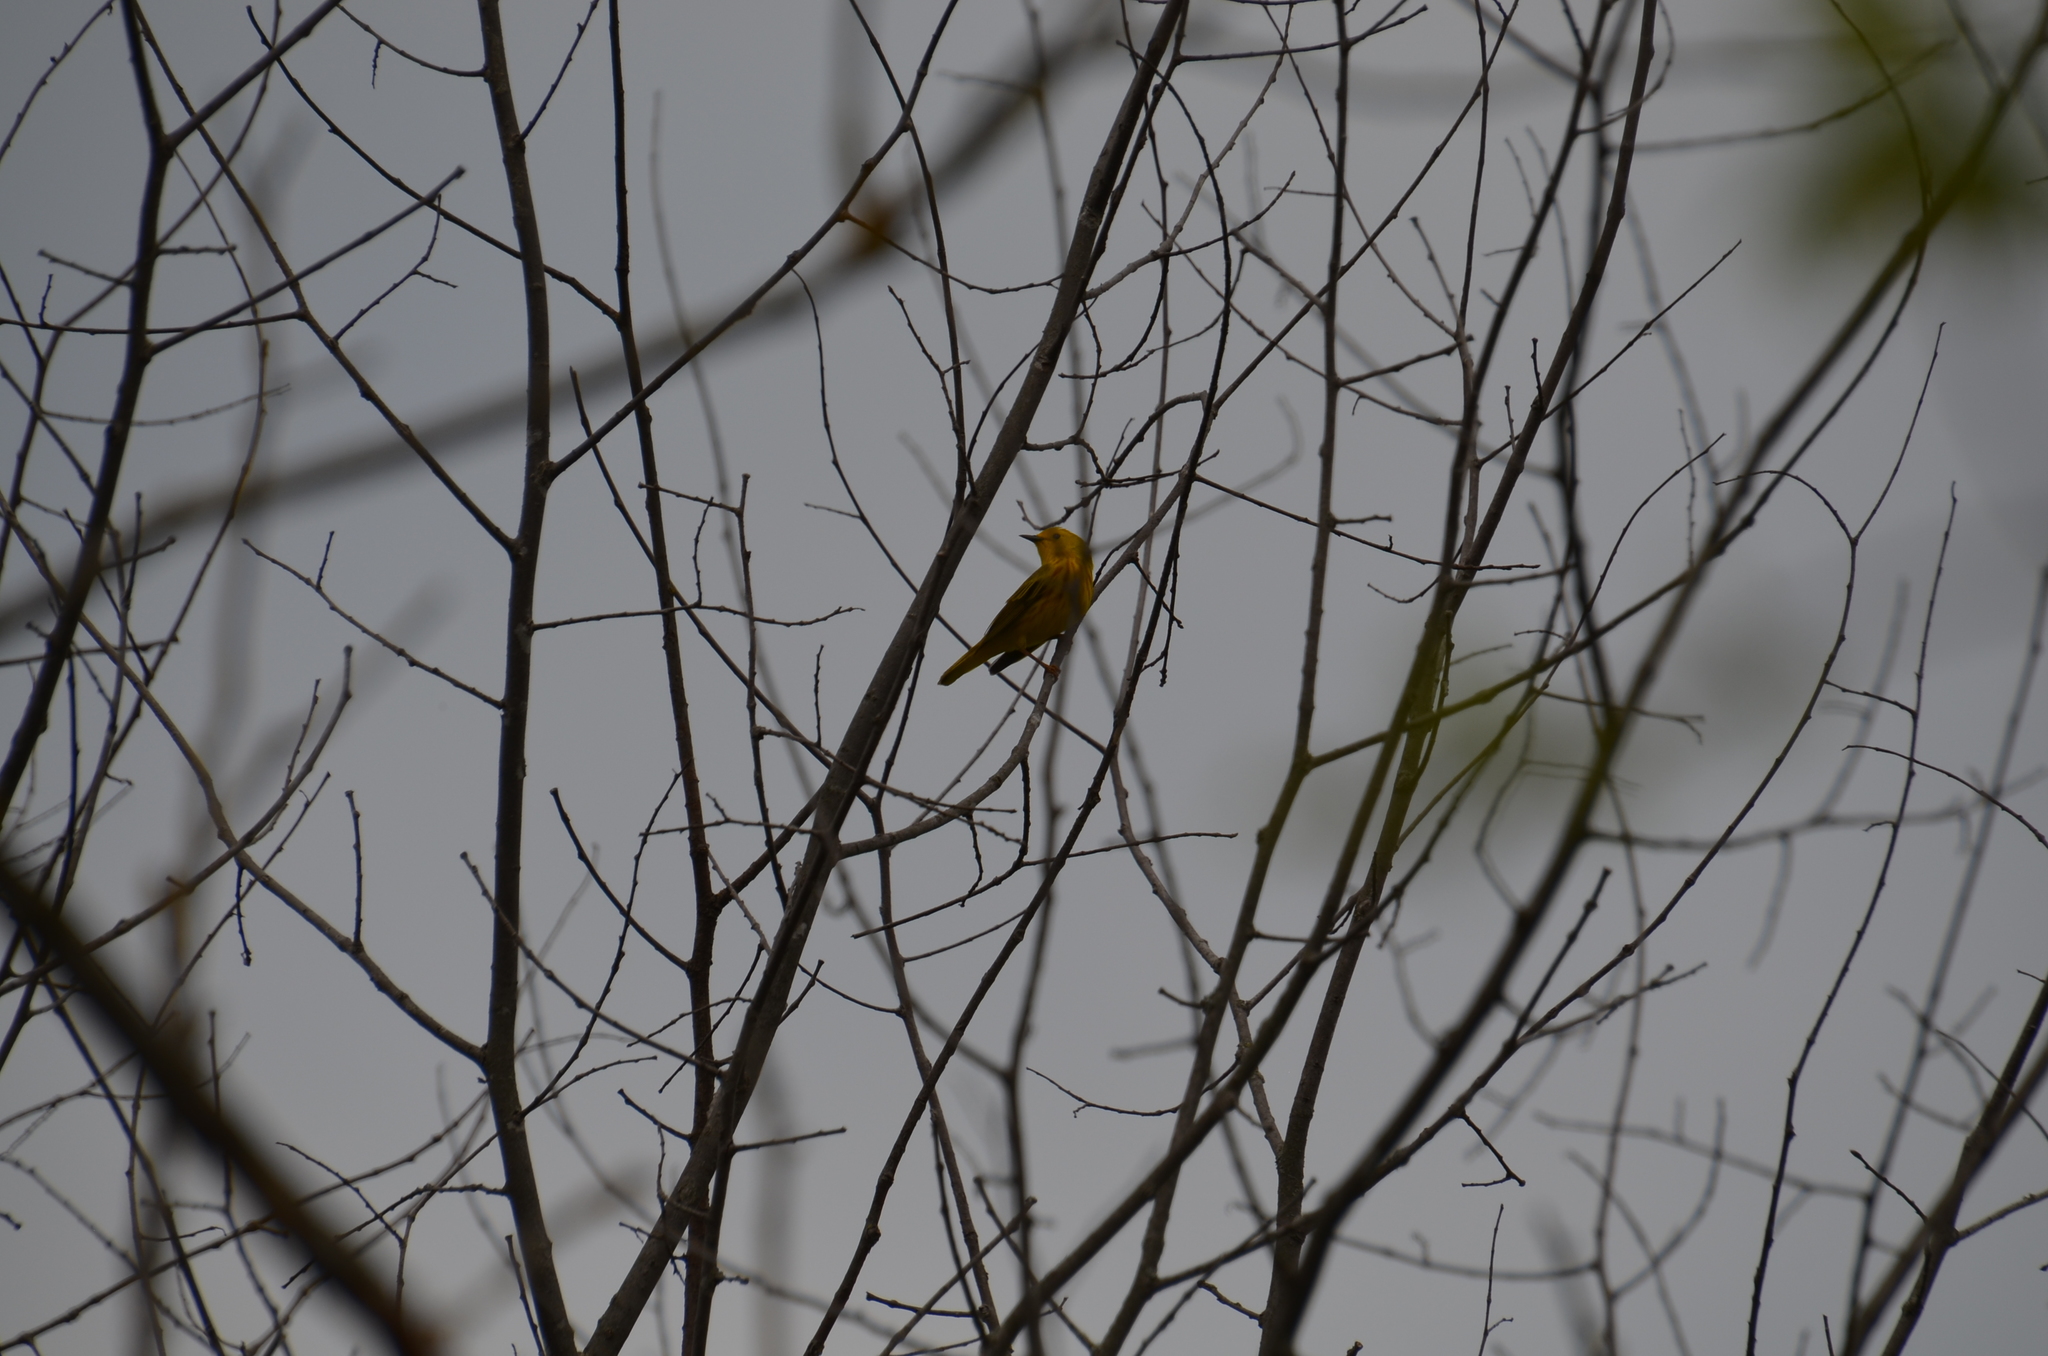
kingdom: Animalia
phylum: Chordata
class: Aves
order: Passeriformes
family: Parulidae
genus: Setophaga
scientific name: Setophaga petechia
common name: Yellow warbler
